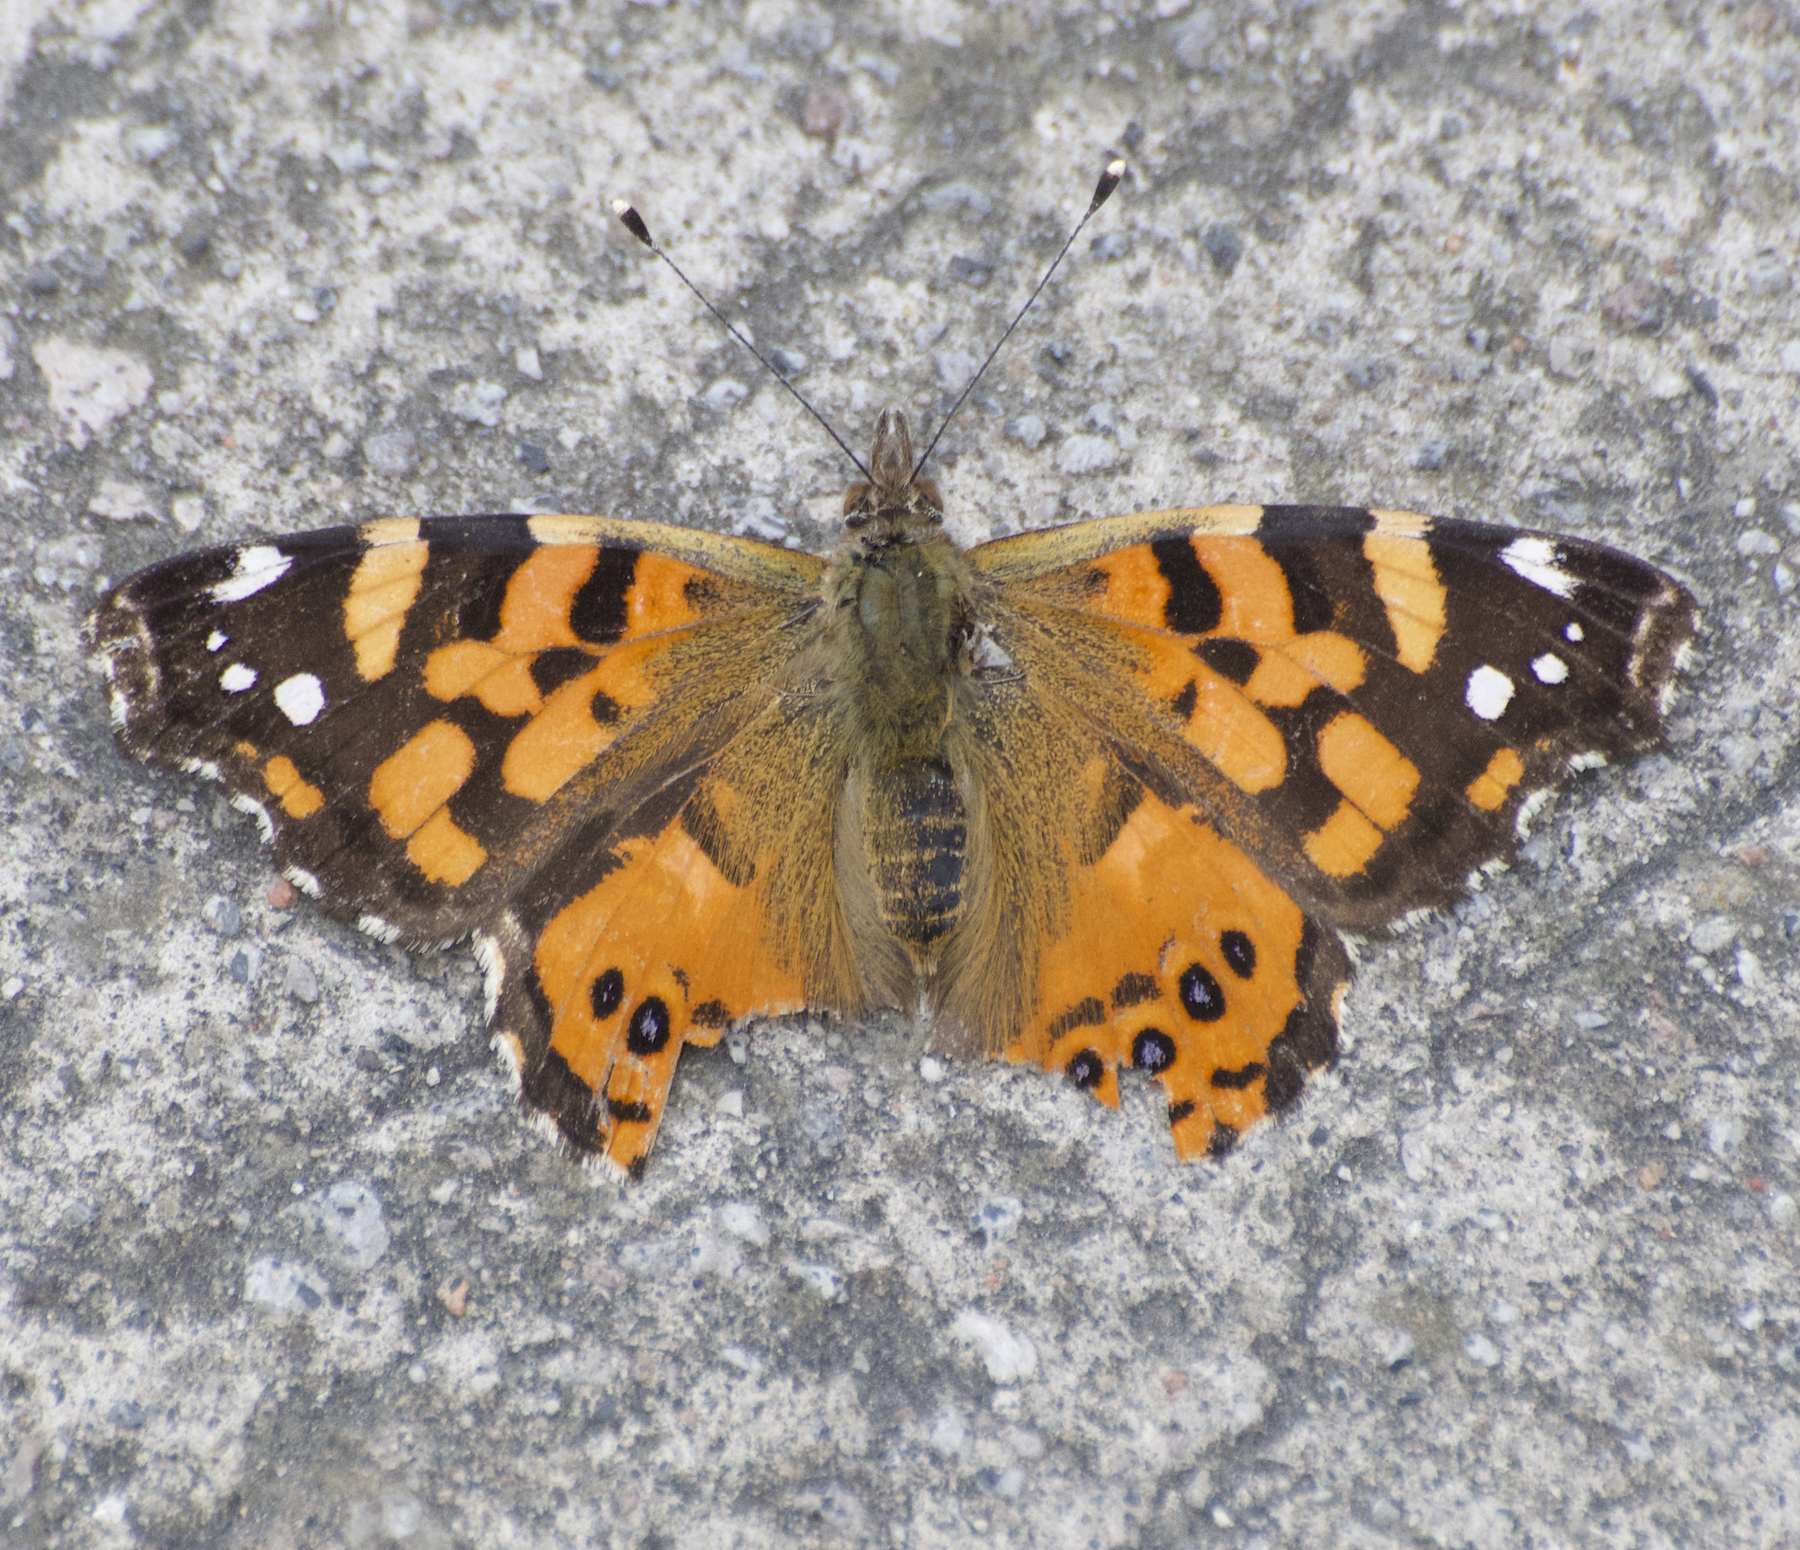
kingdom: Animalia
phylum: Arthropoda
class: Insecta
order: Lepidoptera
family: Nymphalidae
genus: Vanessa
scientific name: Vanessa carye
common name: Subtropical lady
